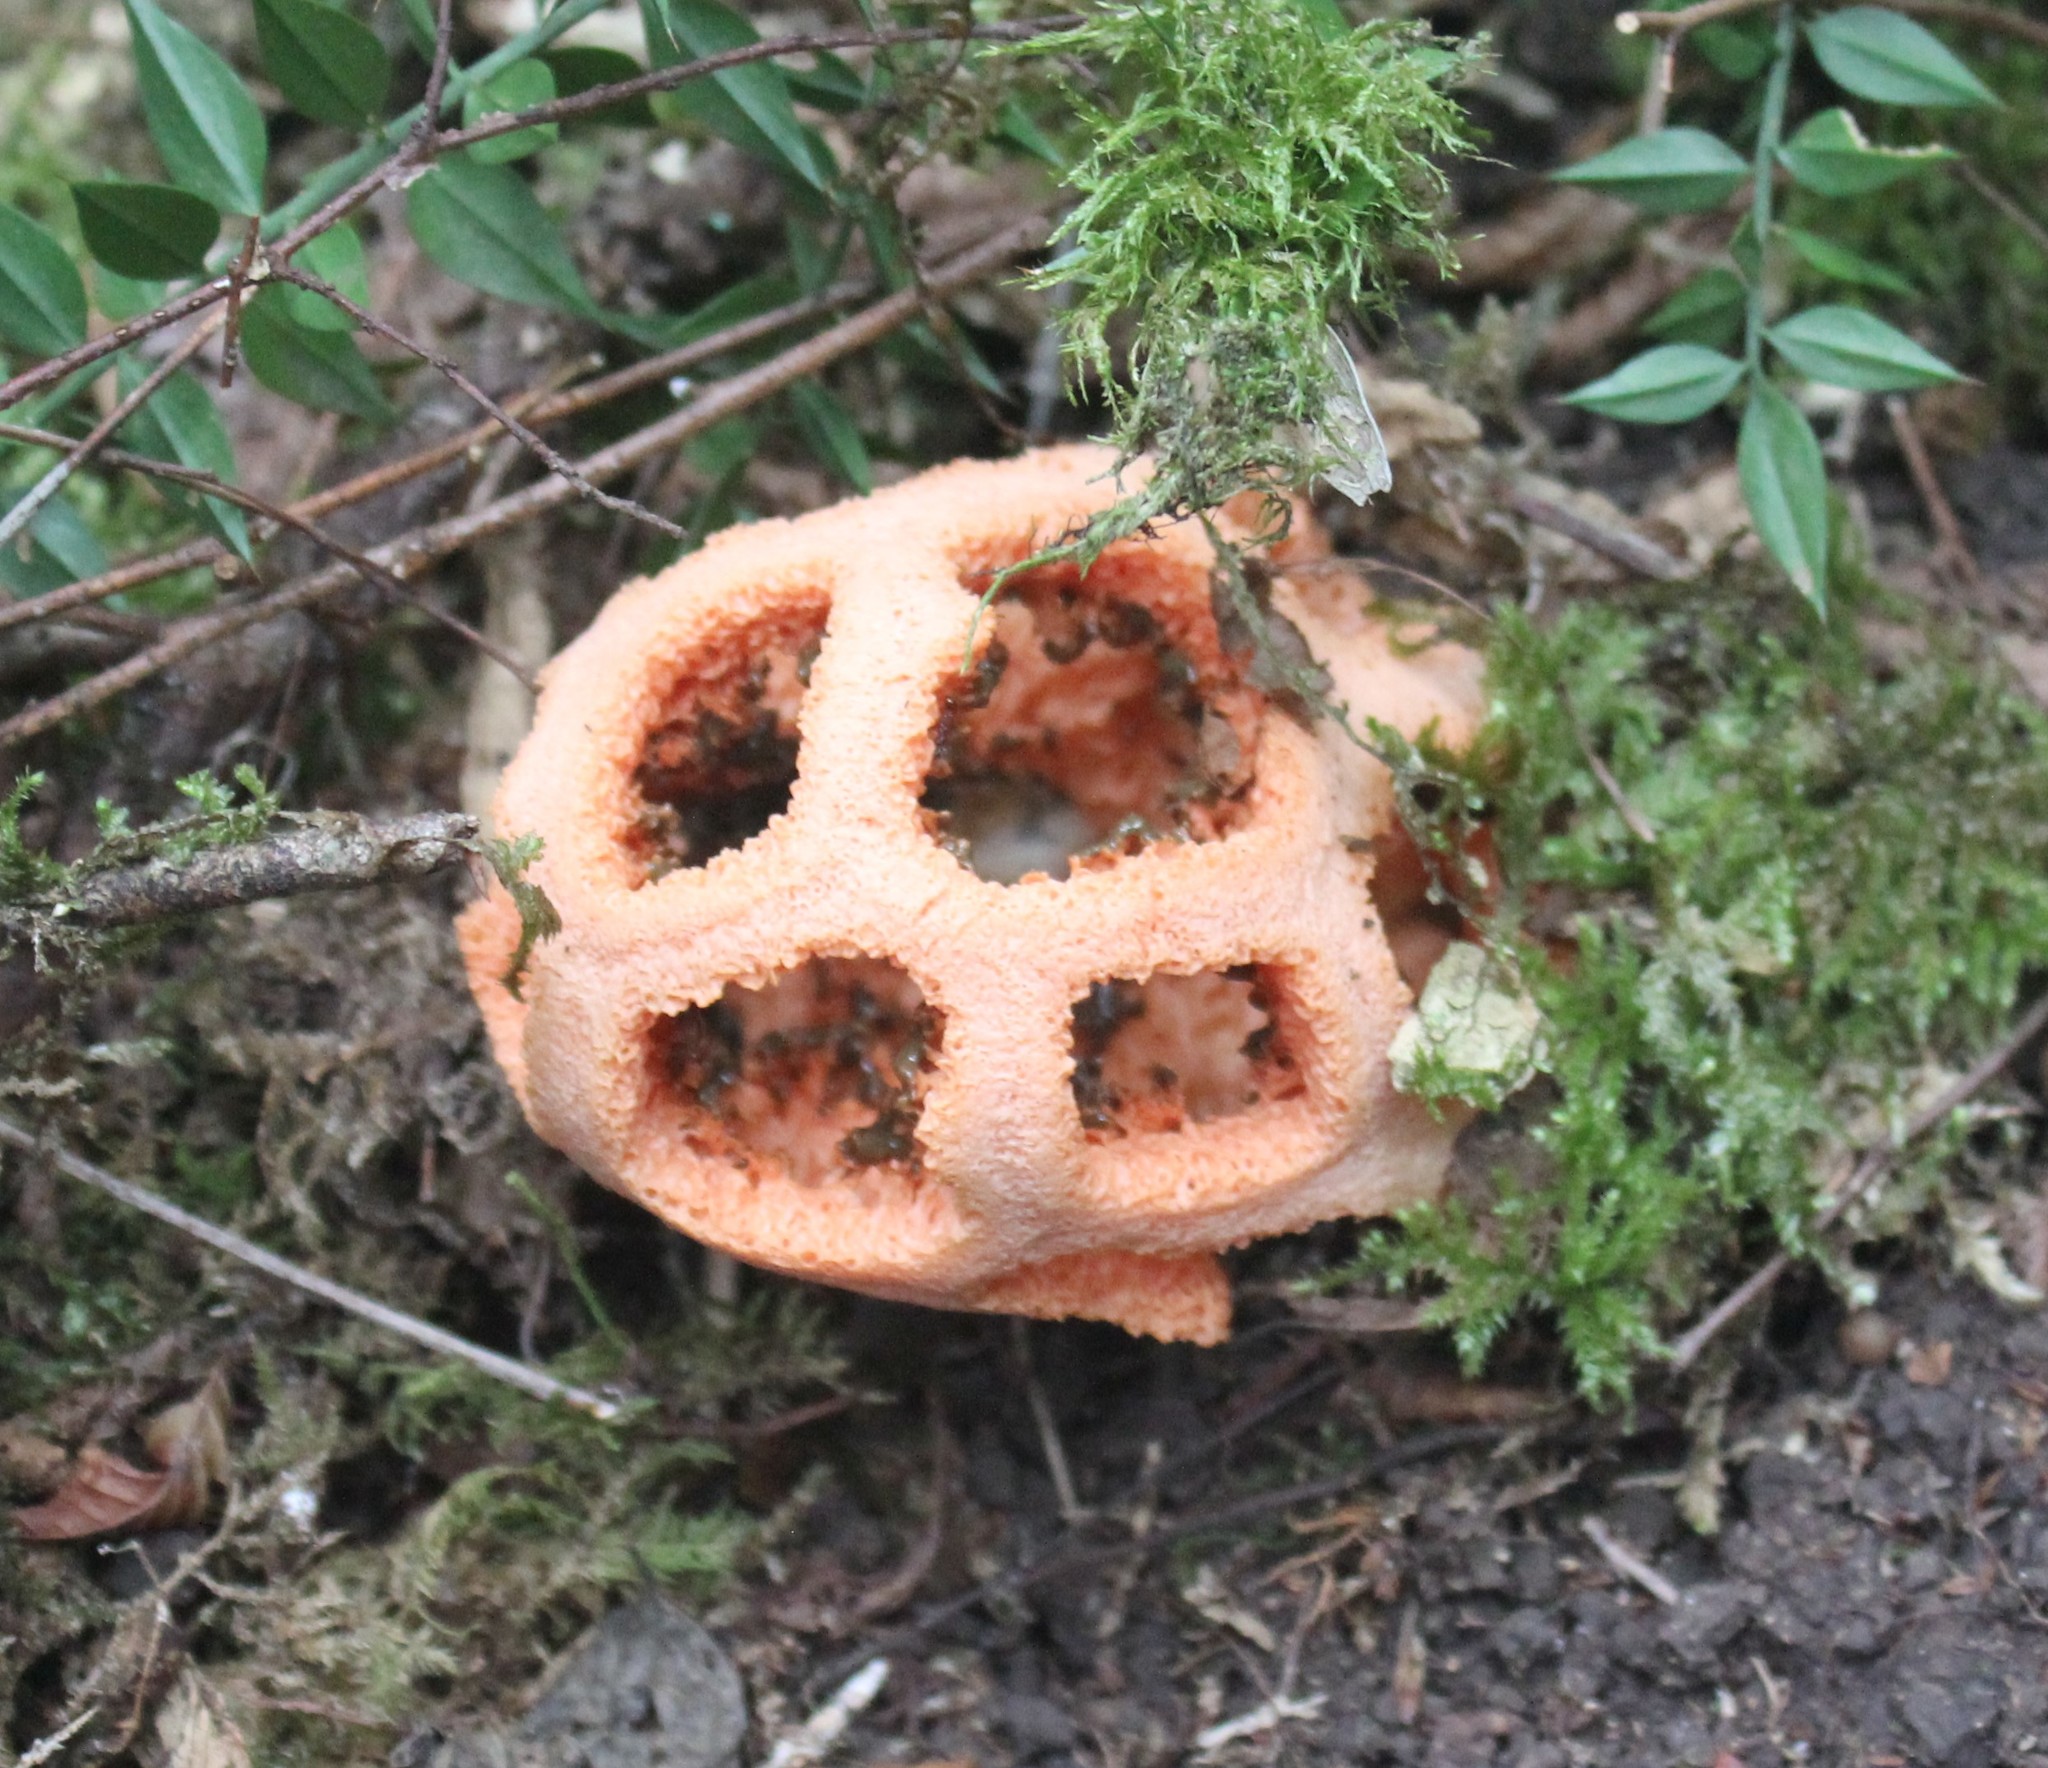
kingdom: Fungi
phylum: Basidiomycota
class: Agaricomycetes
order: Phallales
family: Phallaceae
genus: Clathrus
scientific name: Clathrus ruber
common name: Red cage
